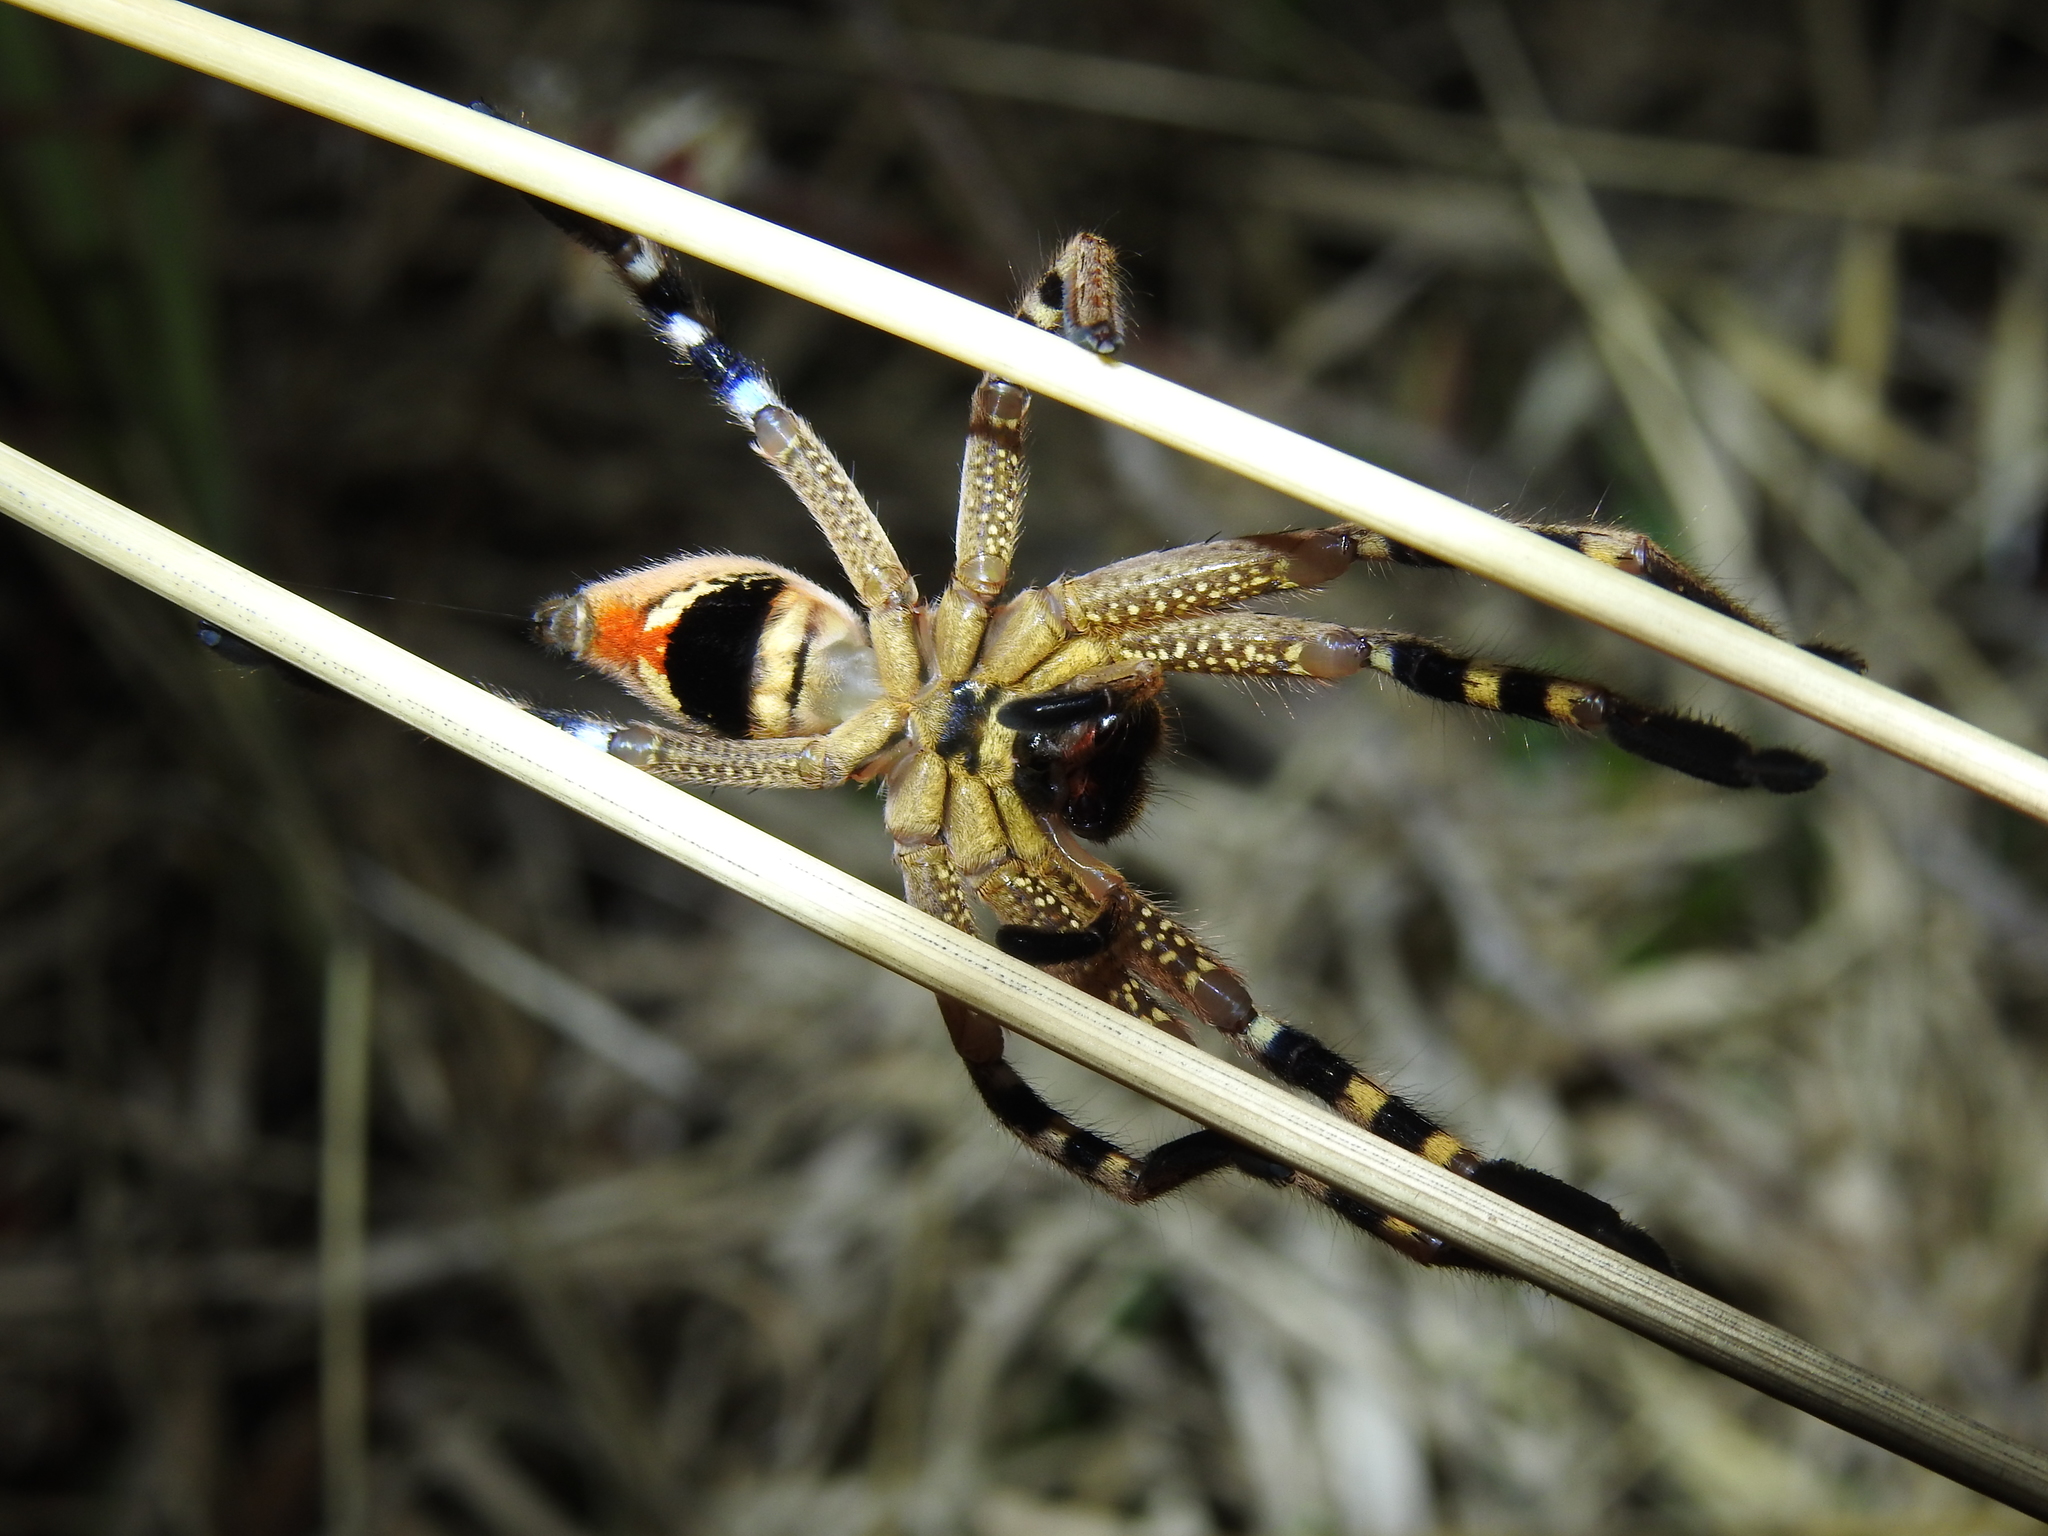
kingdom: Animalia
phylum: Arthropoda
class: Arachnida
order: Araneae
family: Sparassidae
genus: Neosparassus
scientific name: Neosparassus calligaster
